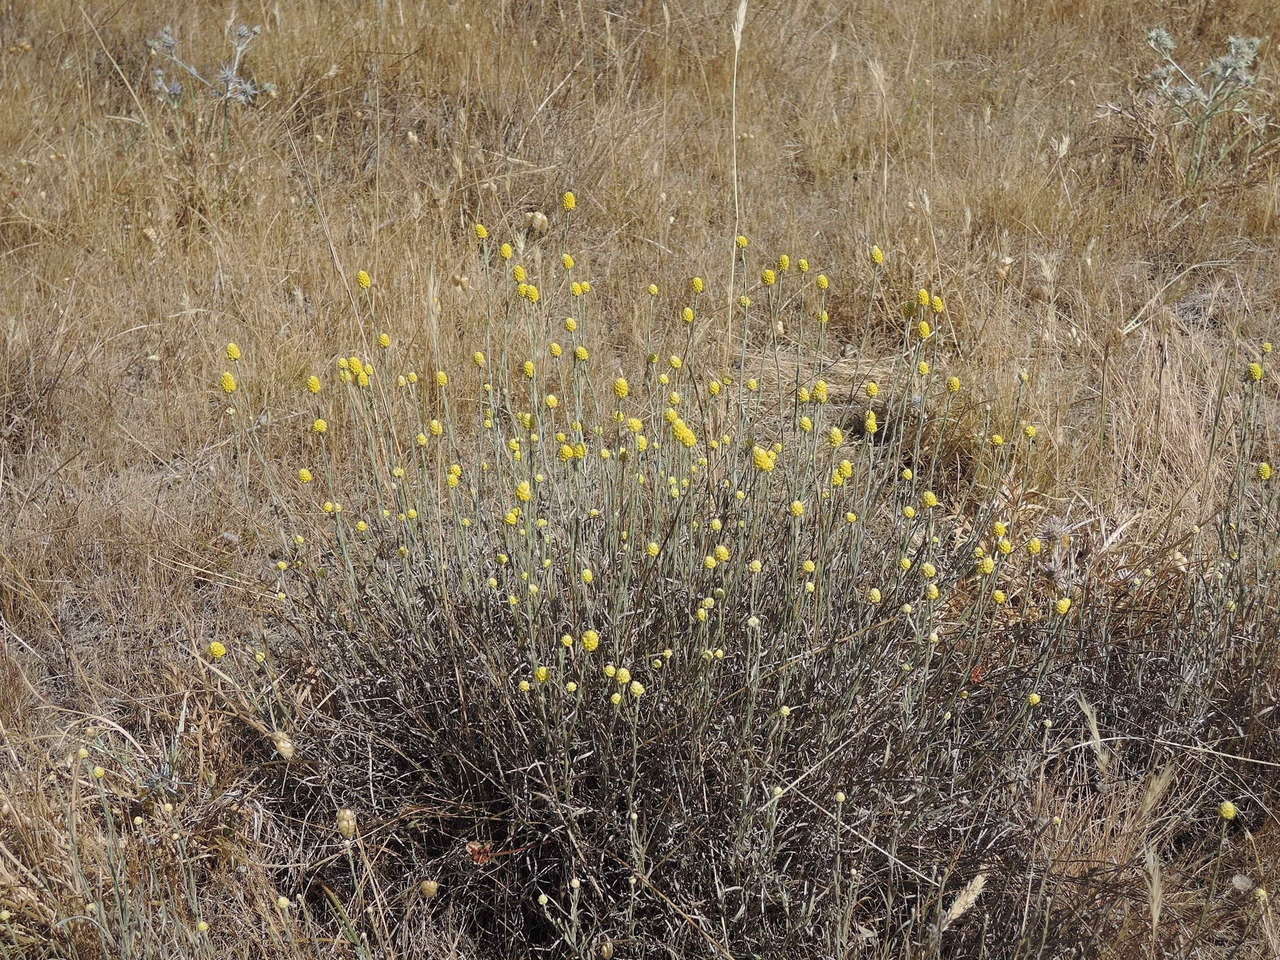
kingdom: Plantae
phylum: Tracheophyta
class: Magnoliopsida
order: Asterales
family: Asteraceae
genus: Calocephalus
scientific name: Calocephalus citreus
